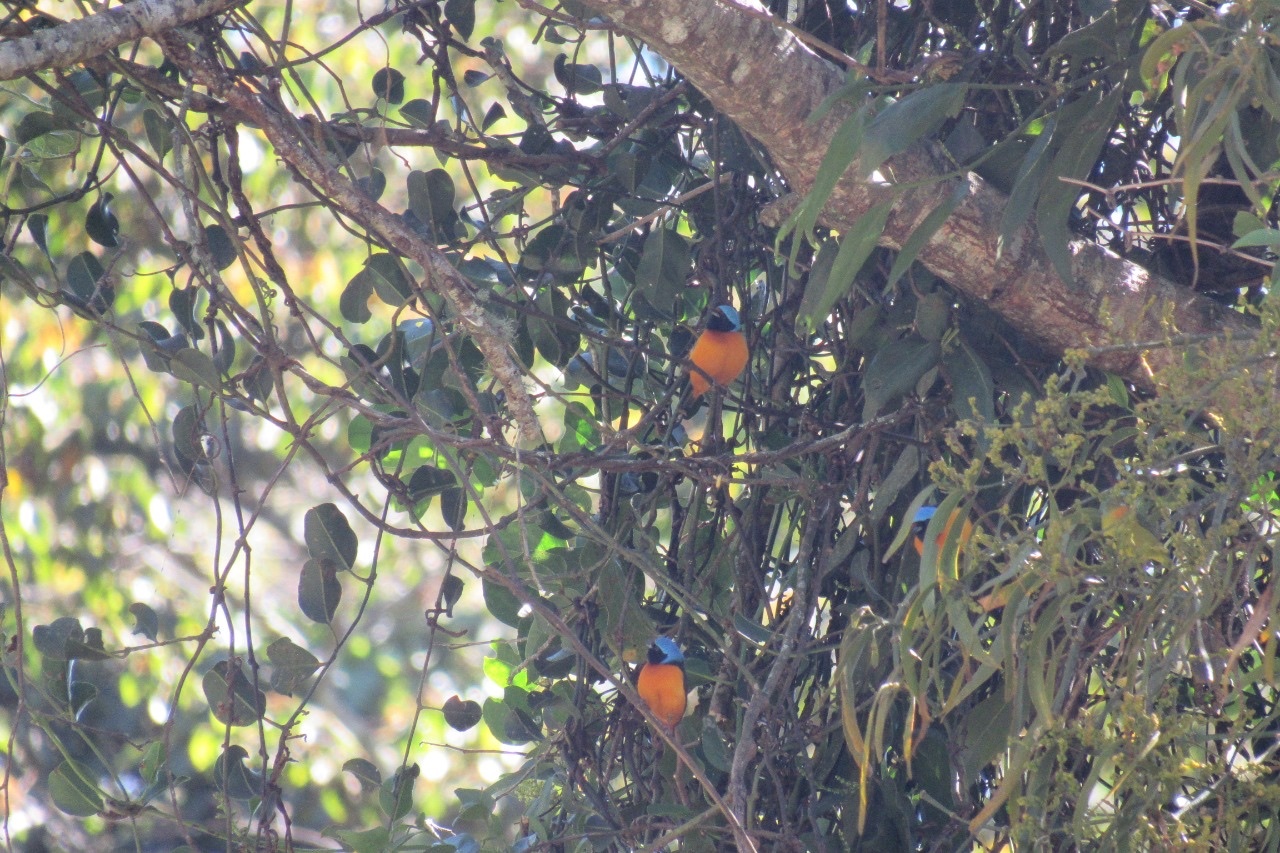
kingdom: Animalia
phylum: Chordata
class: Aves
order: Passeriformes
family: Fringillidae
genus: Euphonia
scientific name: Euphonia elegantissima
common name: Elegant euphonia
